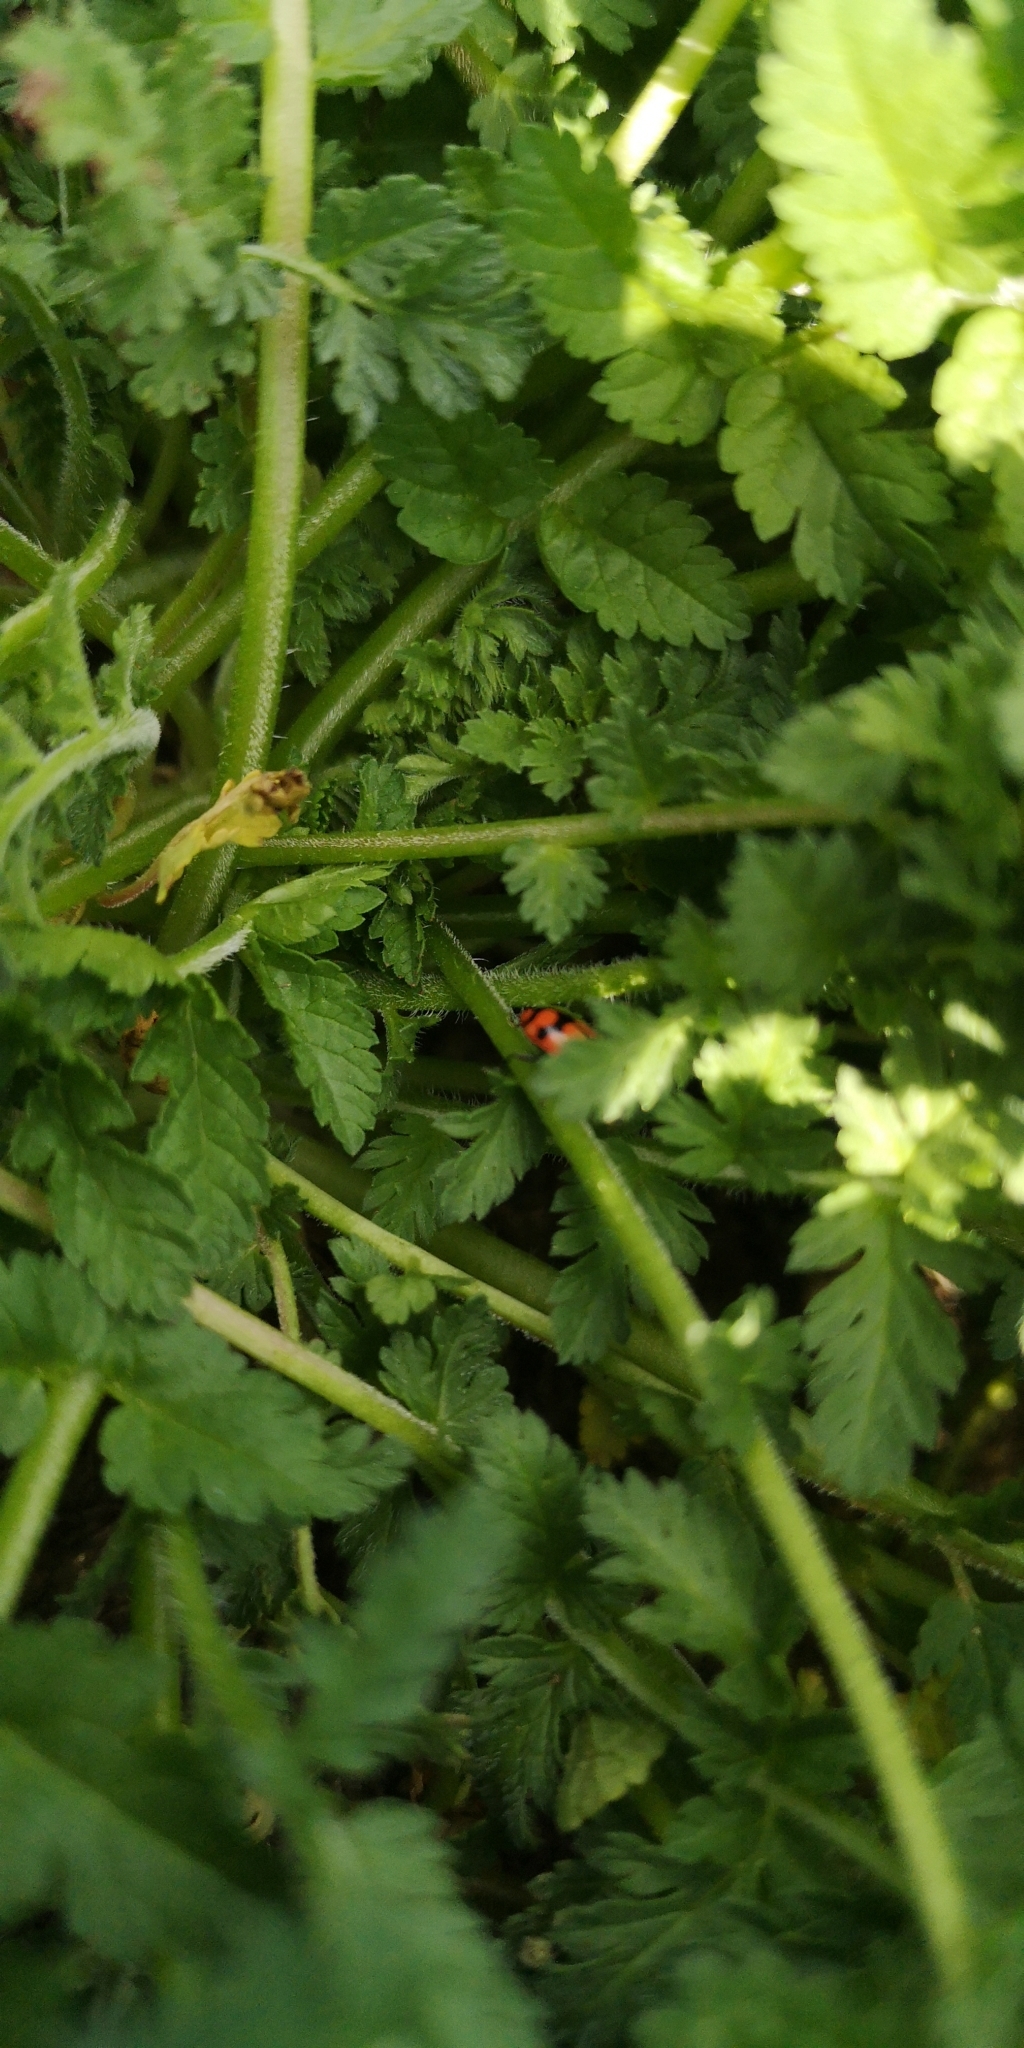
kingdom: Animalia
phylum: Arthropoda
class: Insecta
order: Coleoptera
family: Coccinellidae
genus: Eriopis
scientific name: Eriopis chilensis
